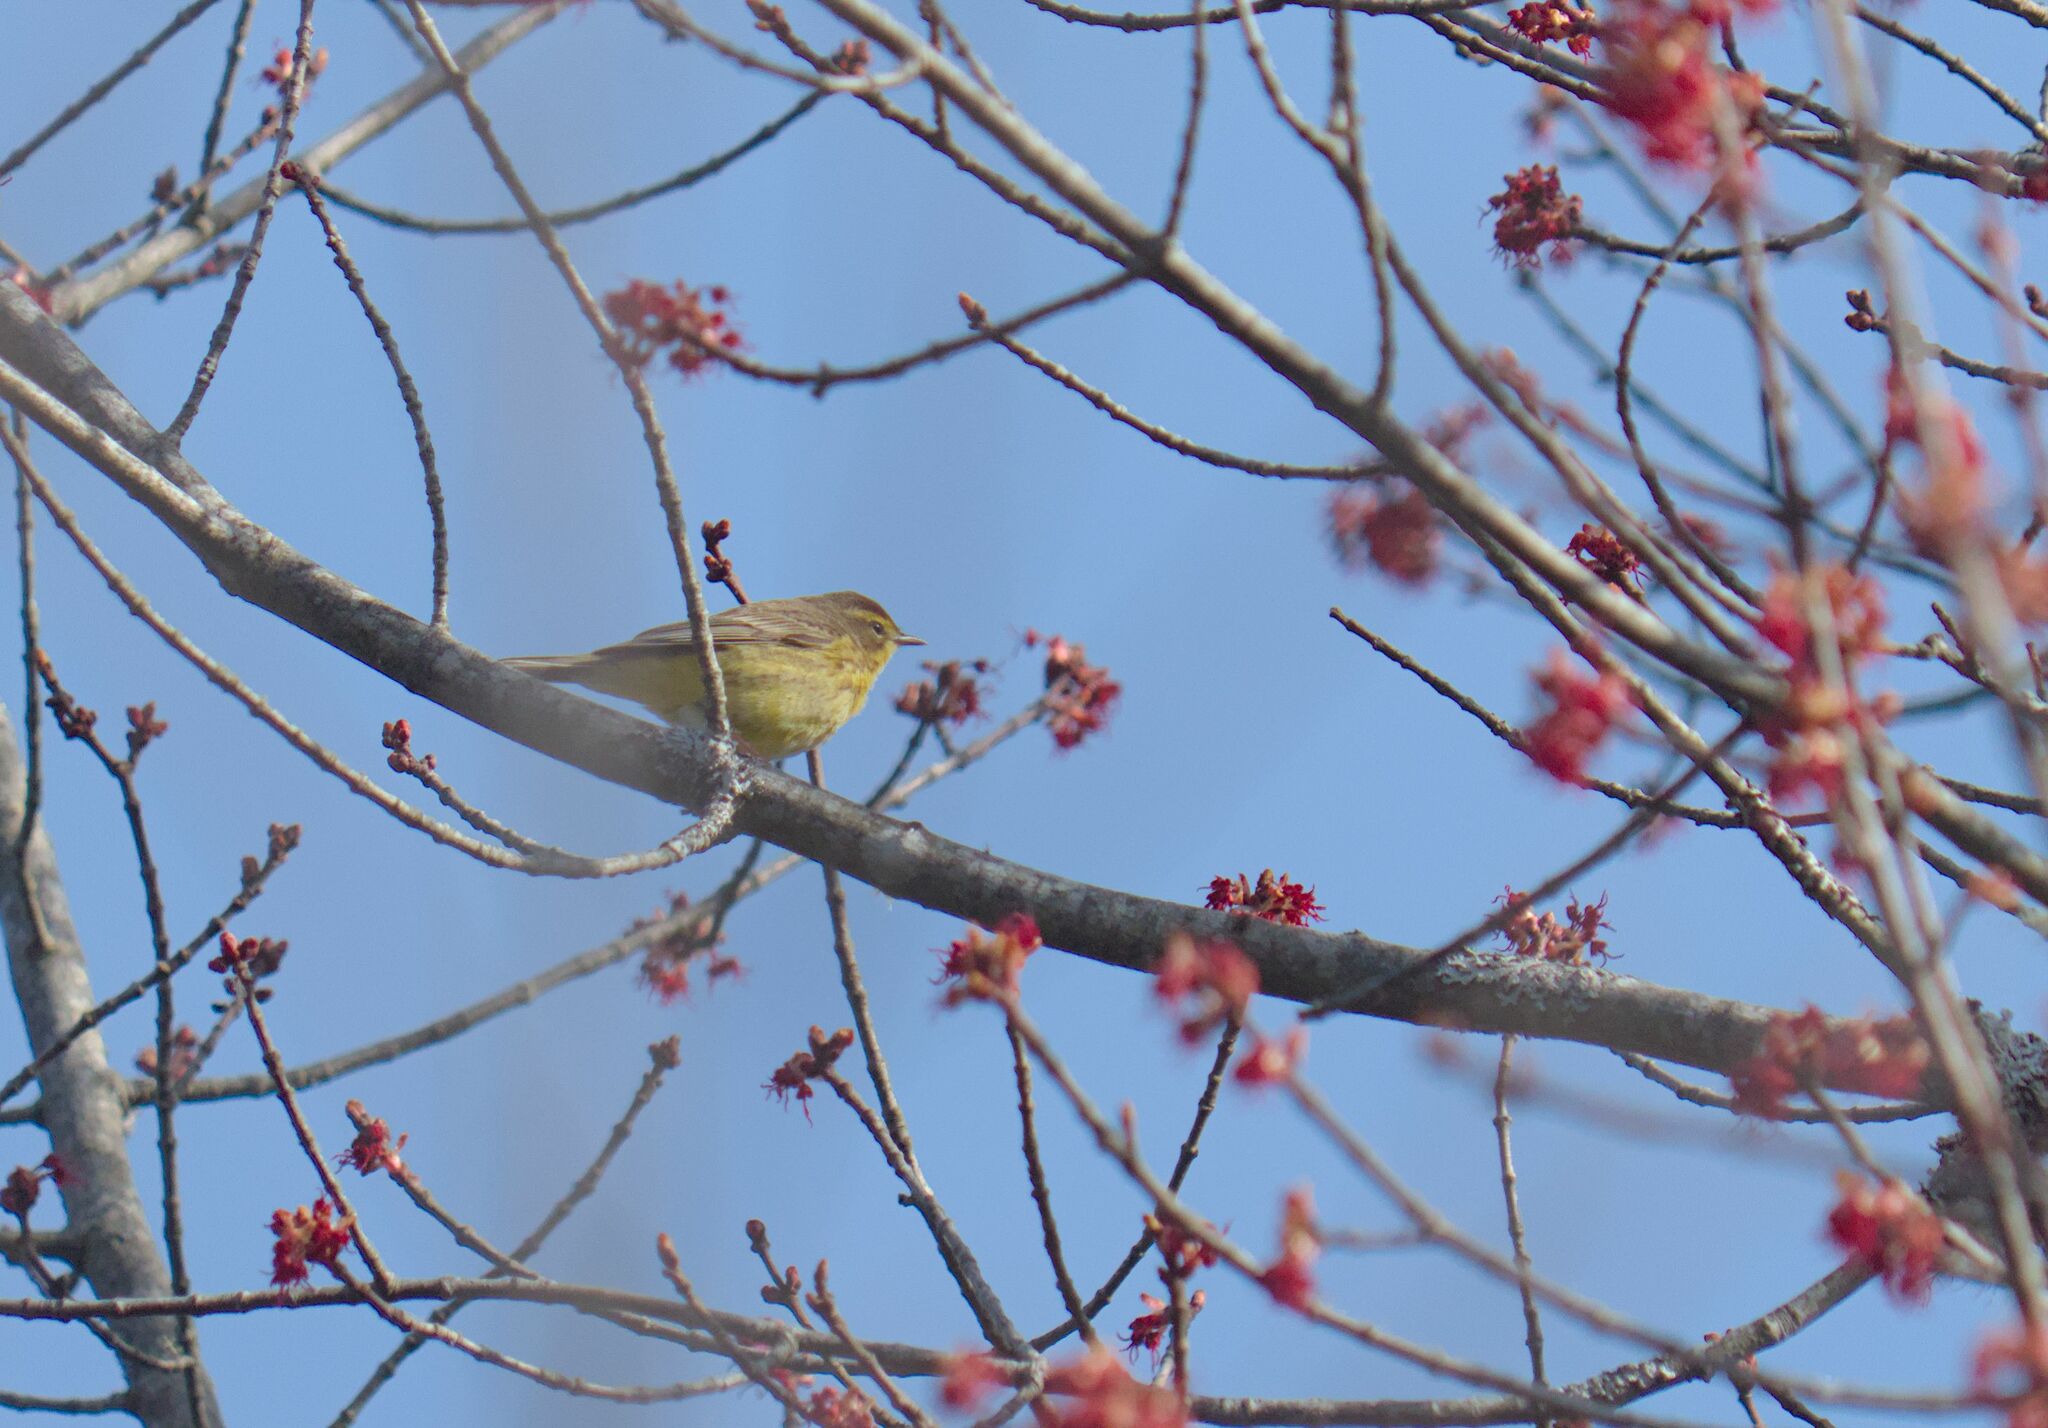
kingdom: Animalia
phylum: Chordata
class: Aves
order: Passeriformes
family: Parulidae
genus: Setophaga
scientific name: Setophaga palmarum
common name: Palm warbler
